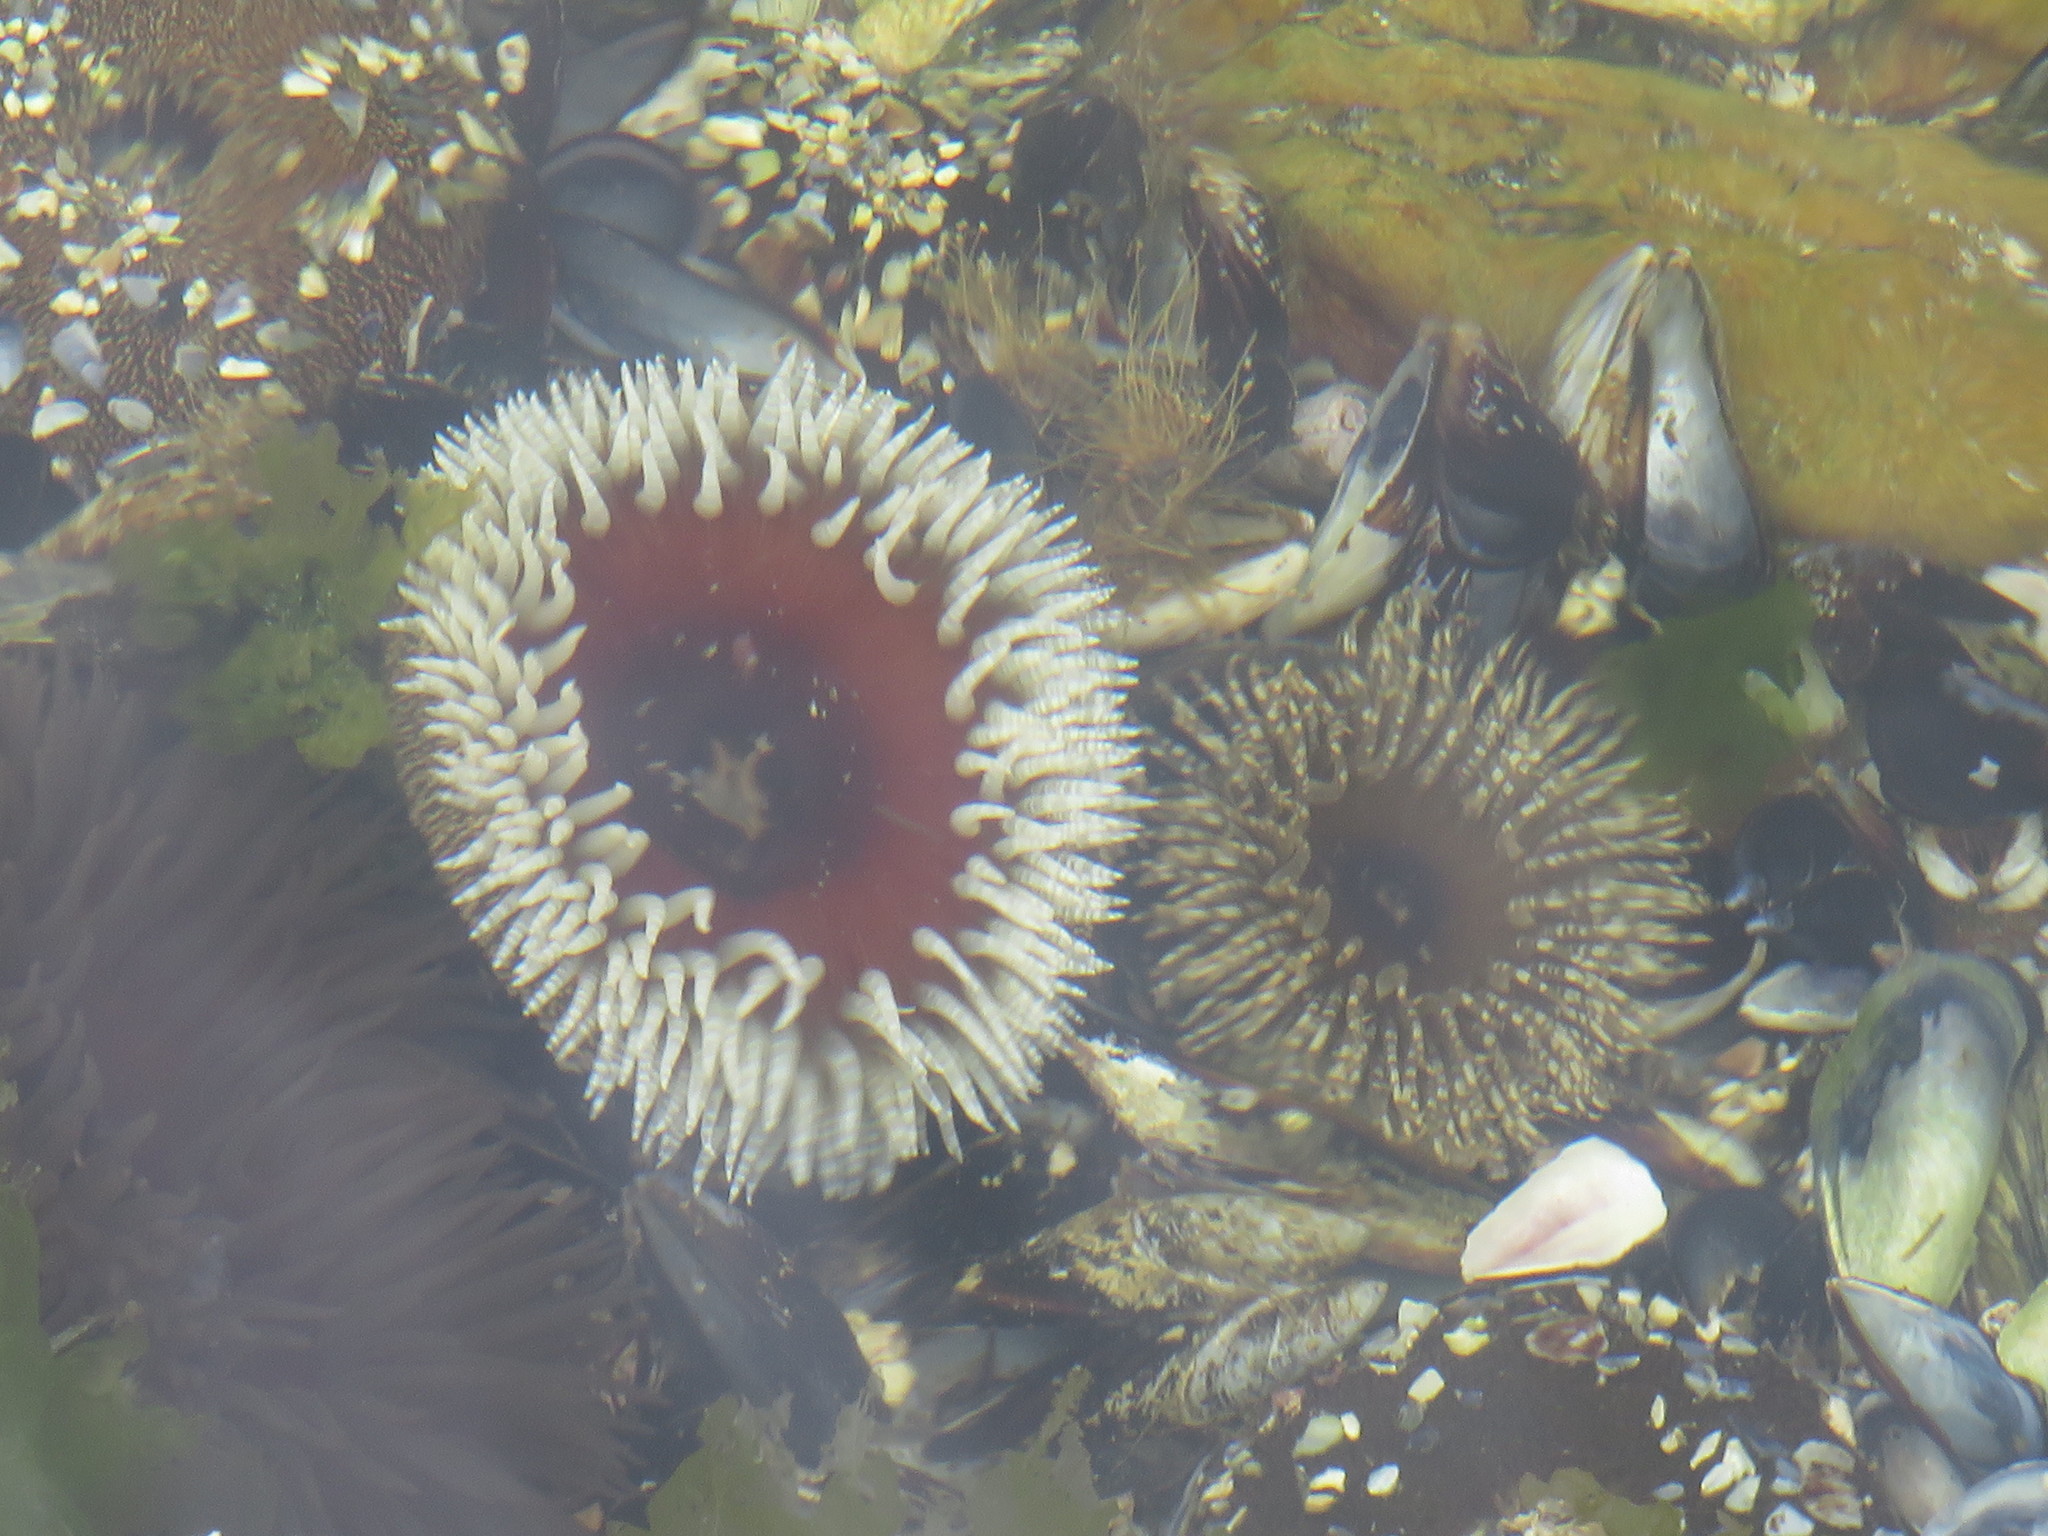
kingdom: Animalia
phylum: Cnidaria
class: Anthozoa
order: Actiniaria
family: Actiniidae
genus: Bunodactis
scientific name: Bunodactis reynaudi
